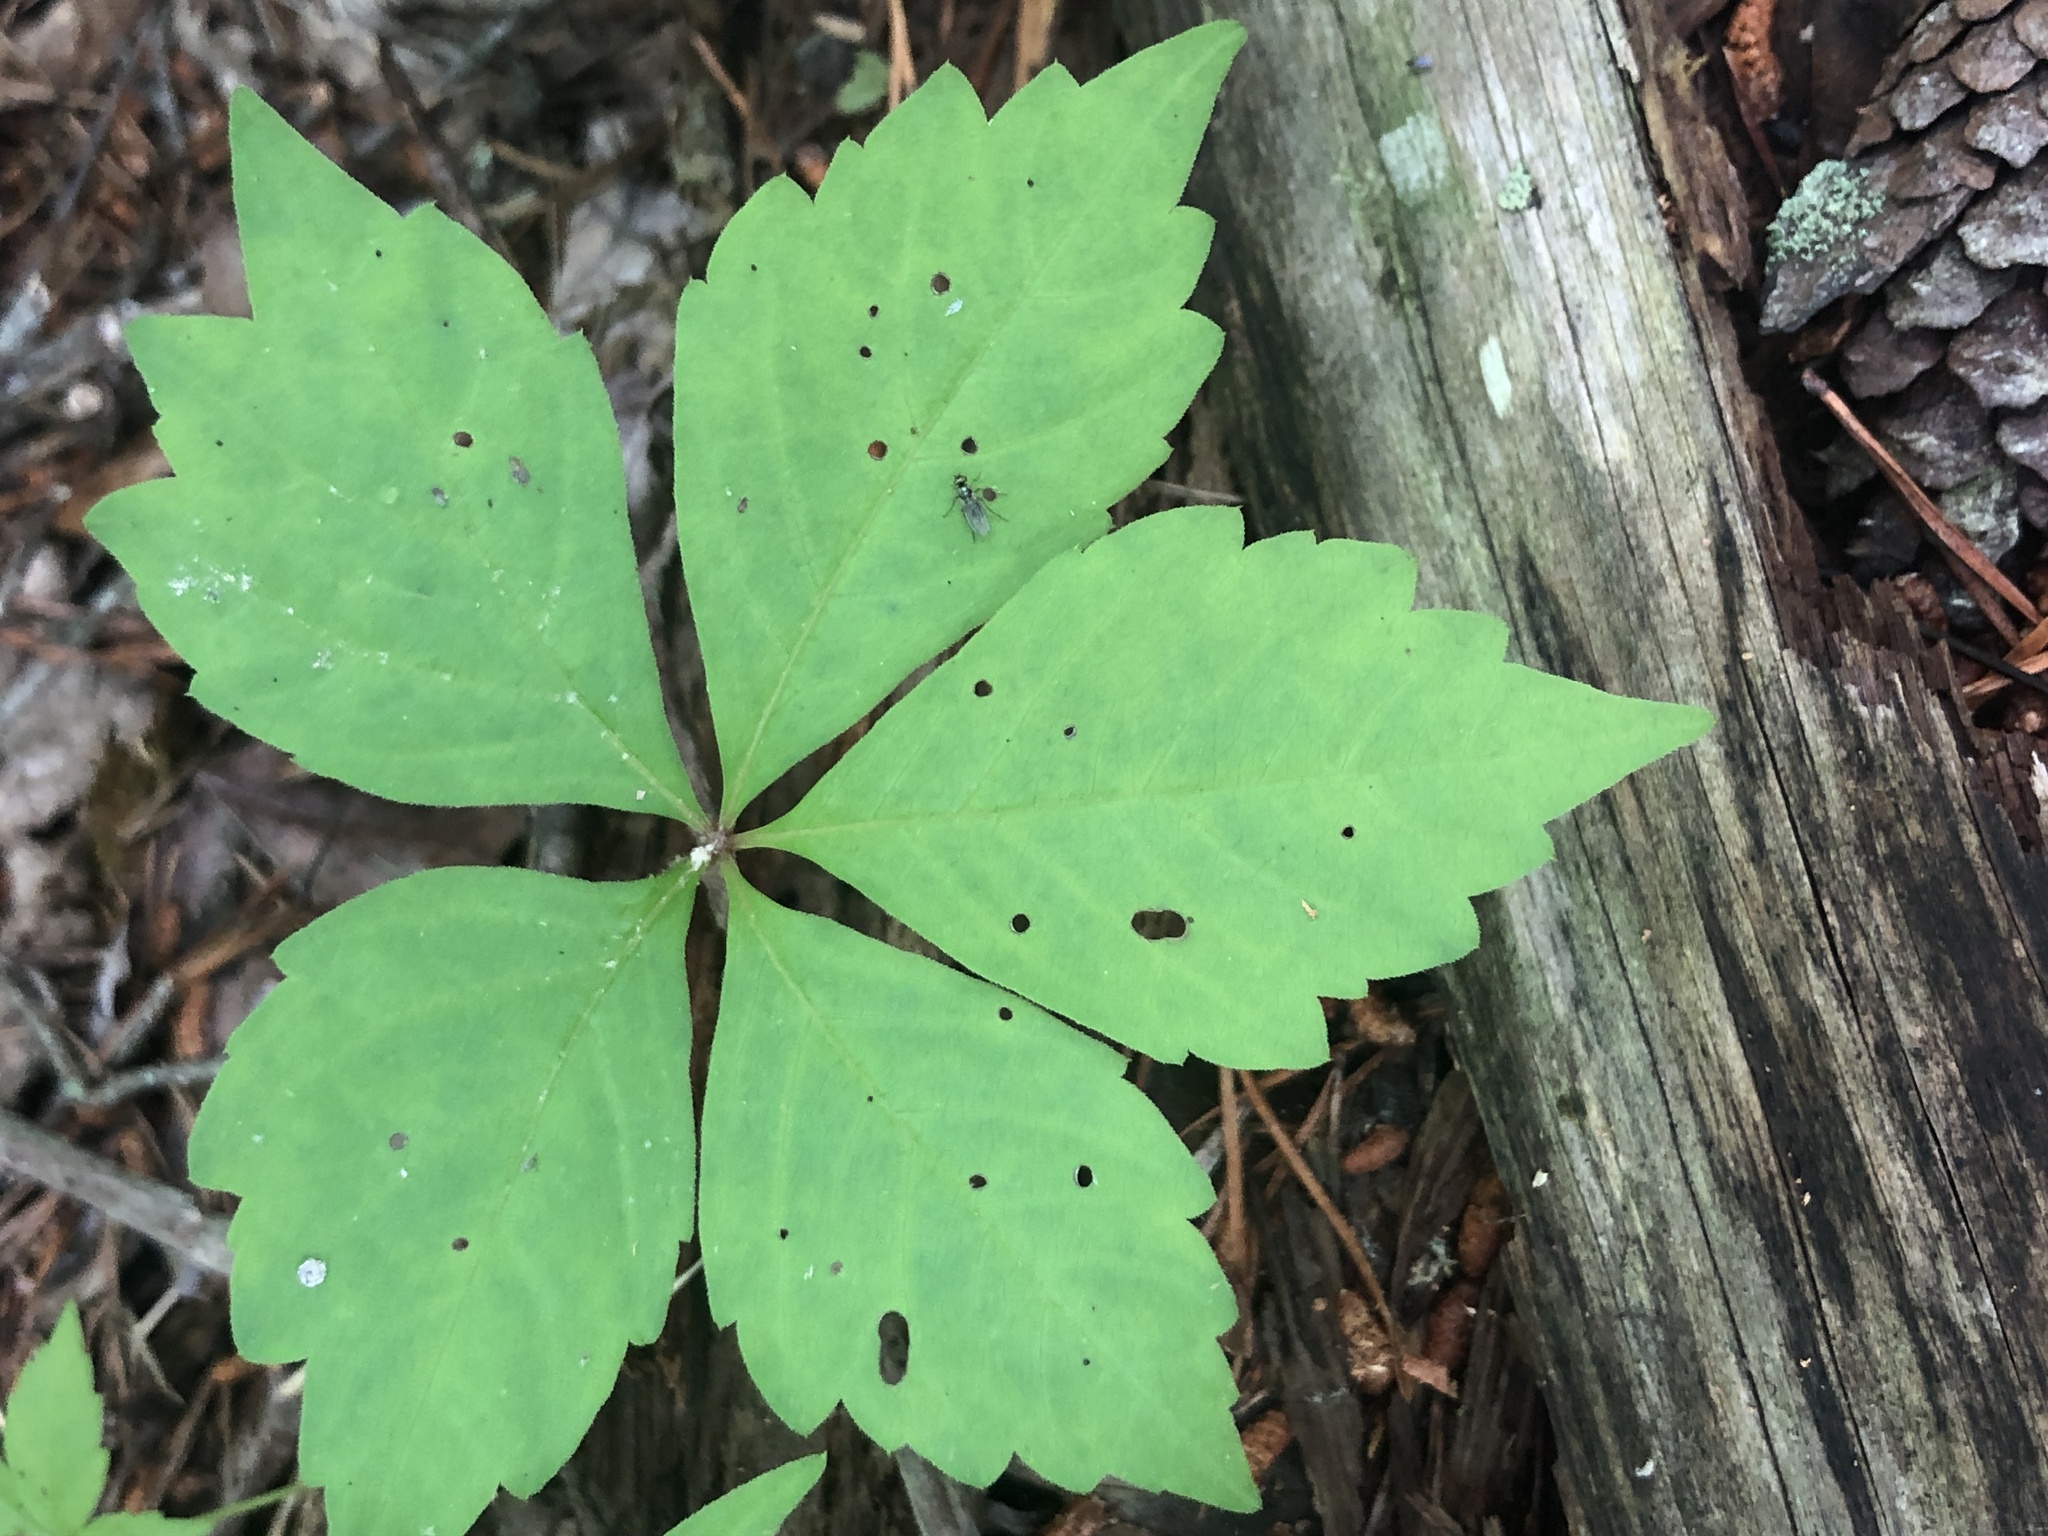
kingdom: Plantae
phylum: Tracheophyta
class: Magnoliopsida
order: Vitales
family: Vitaceae
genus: Parthenocissus
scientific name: Parthenocissus quinquefolia
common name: Virginia-creeper
